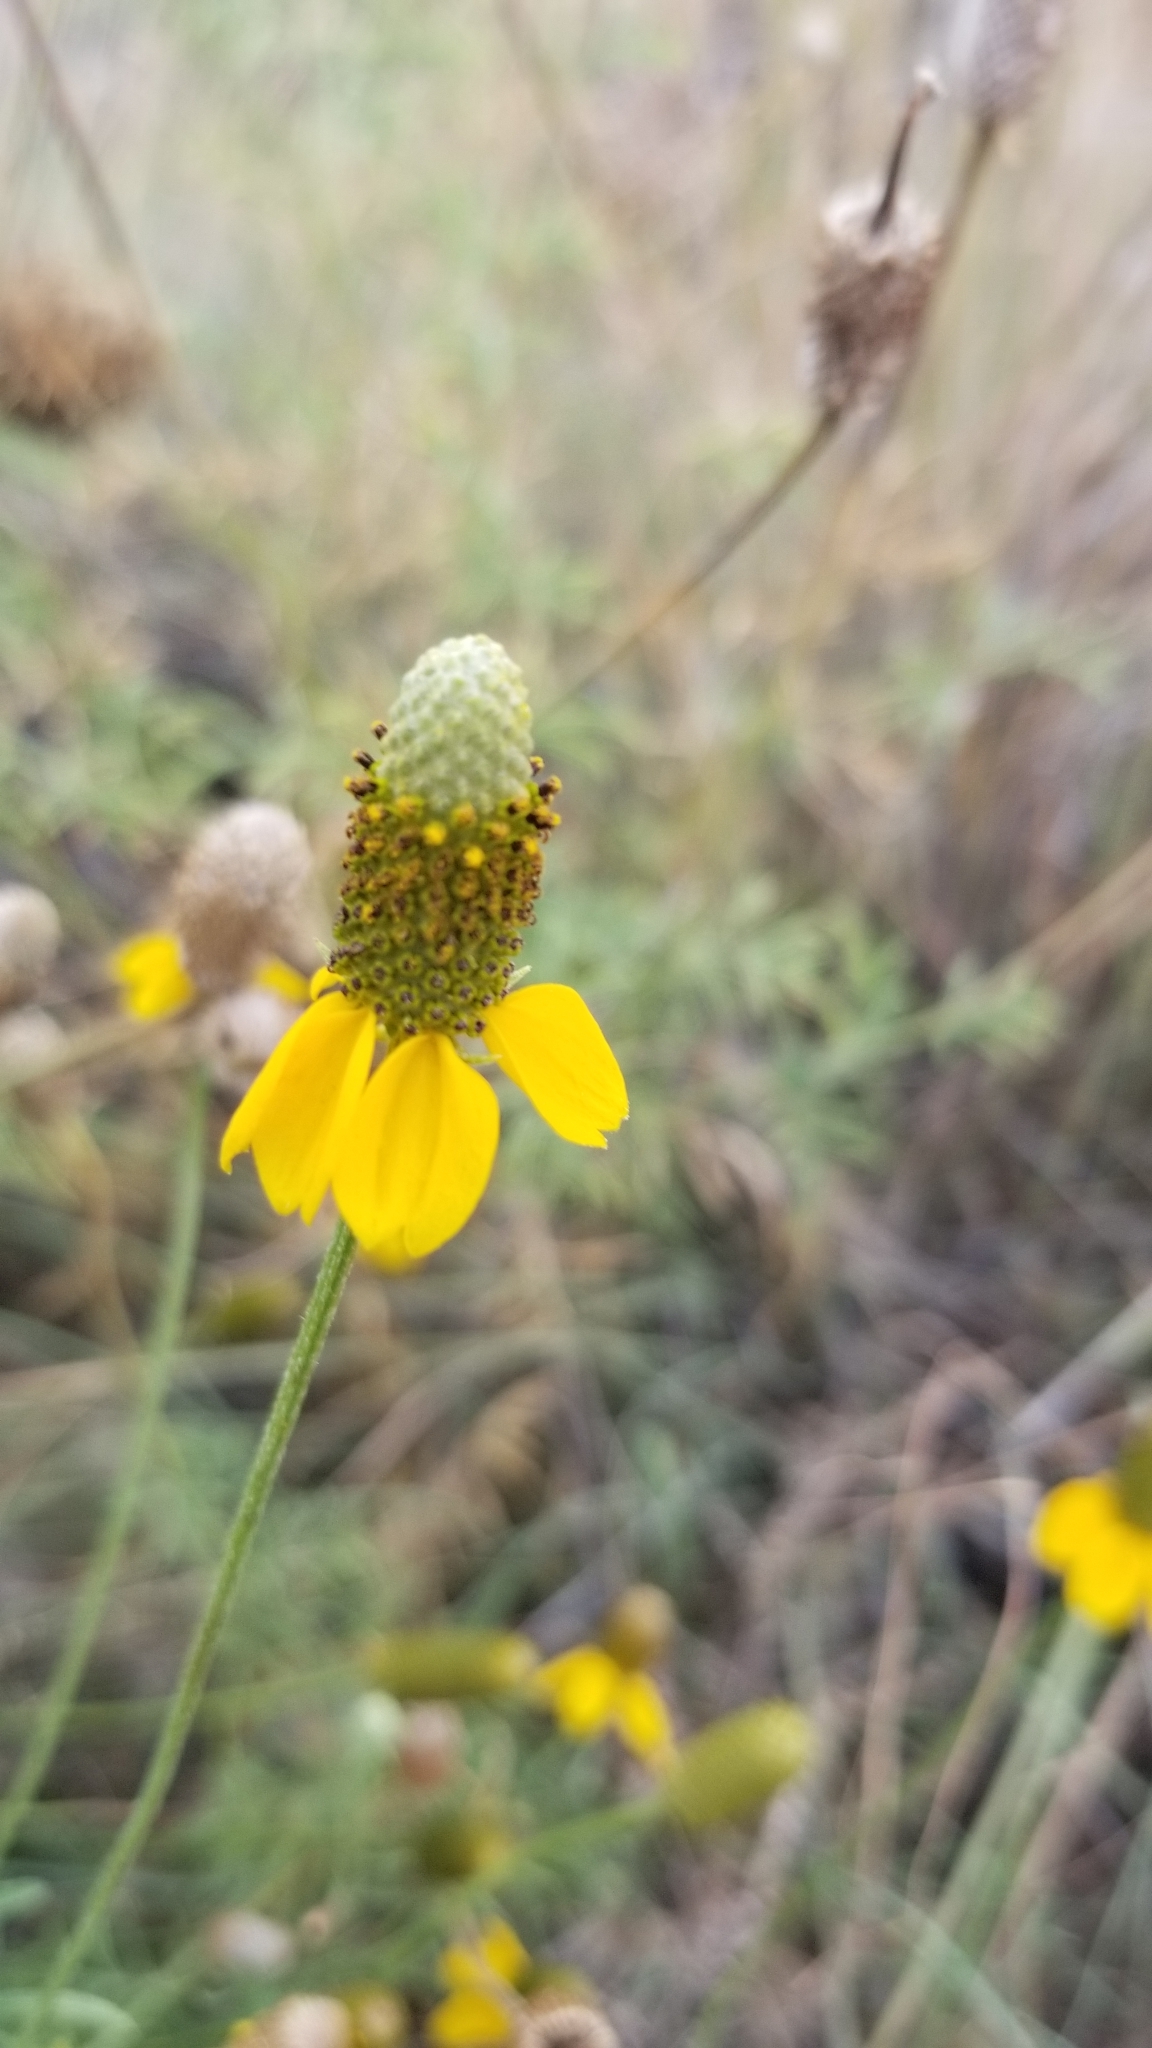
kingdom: Plantae
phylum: Tracheophyta
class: Magnoliopsida
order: Asterales
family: Asteraceae
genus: Ratibida
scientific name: Ratibida columnifera
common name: Prairie coneflower
